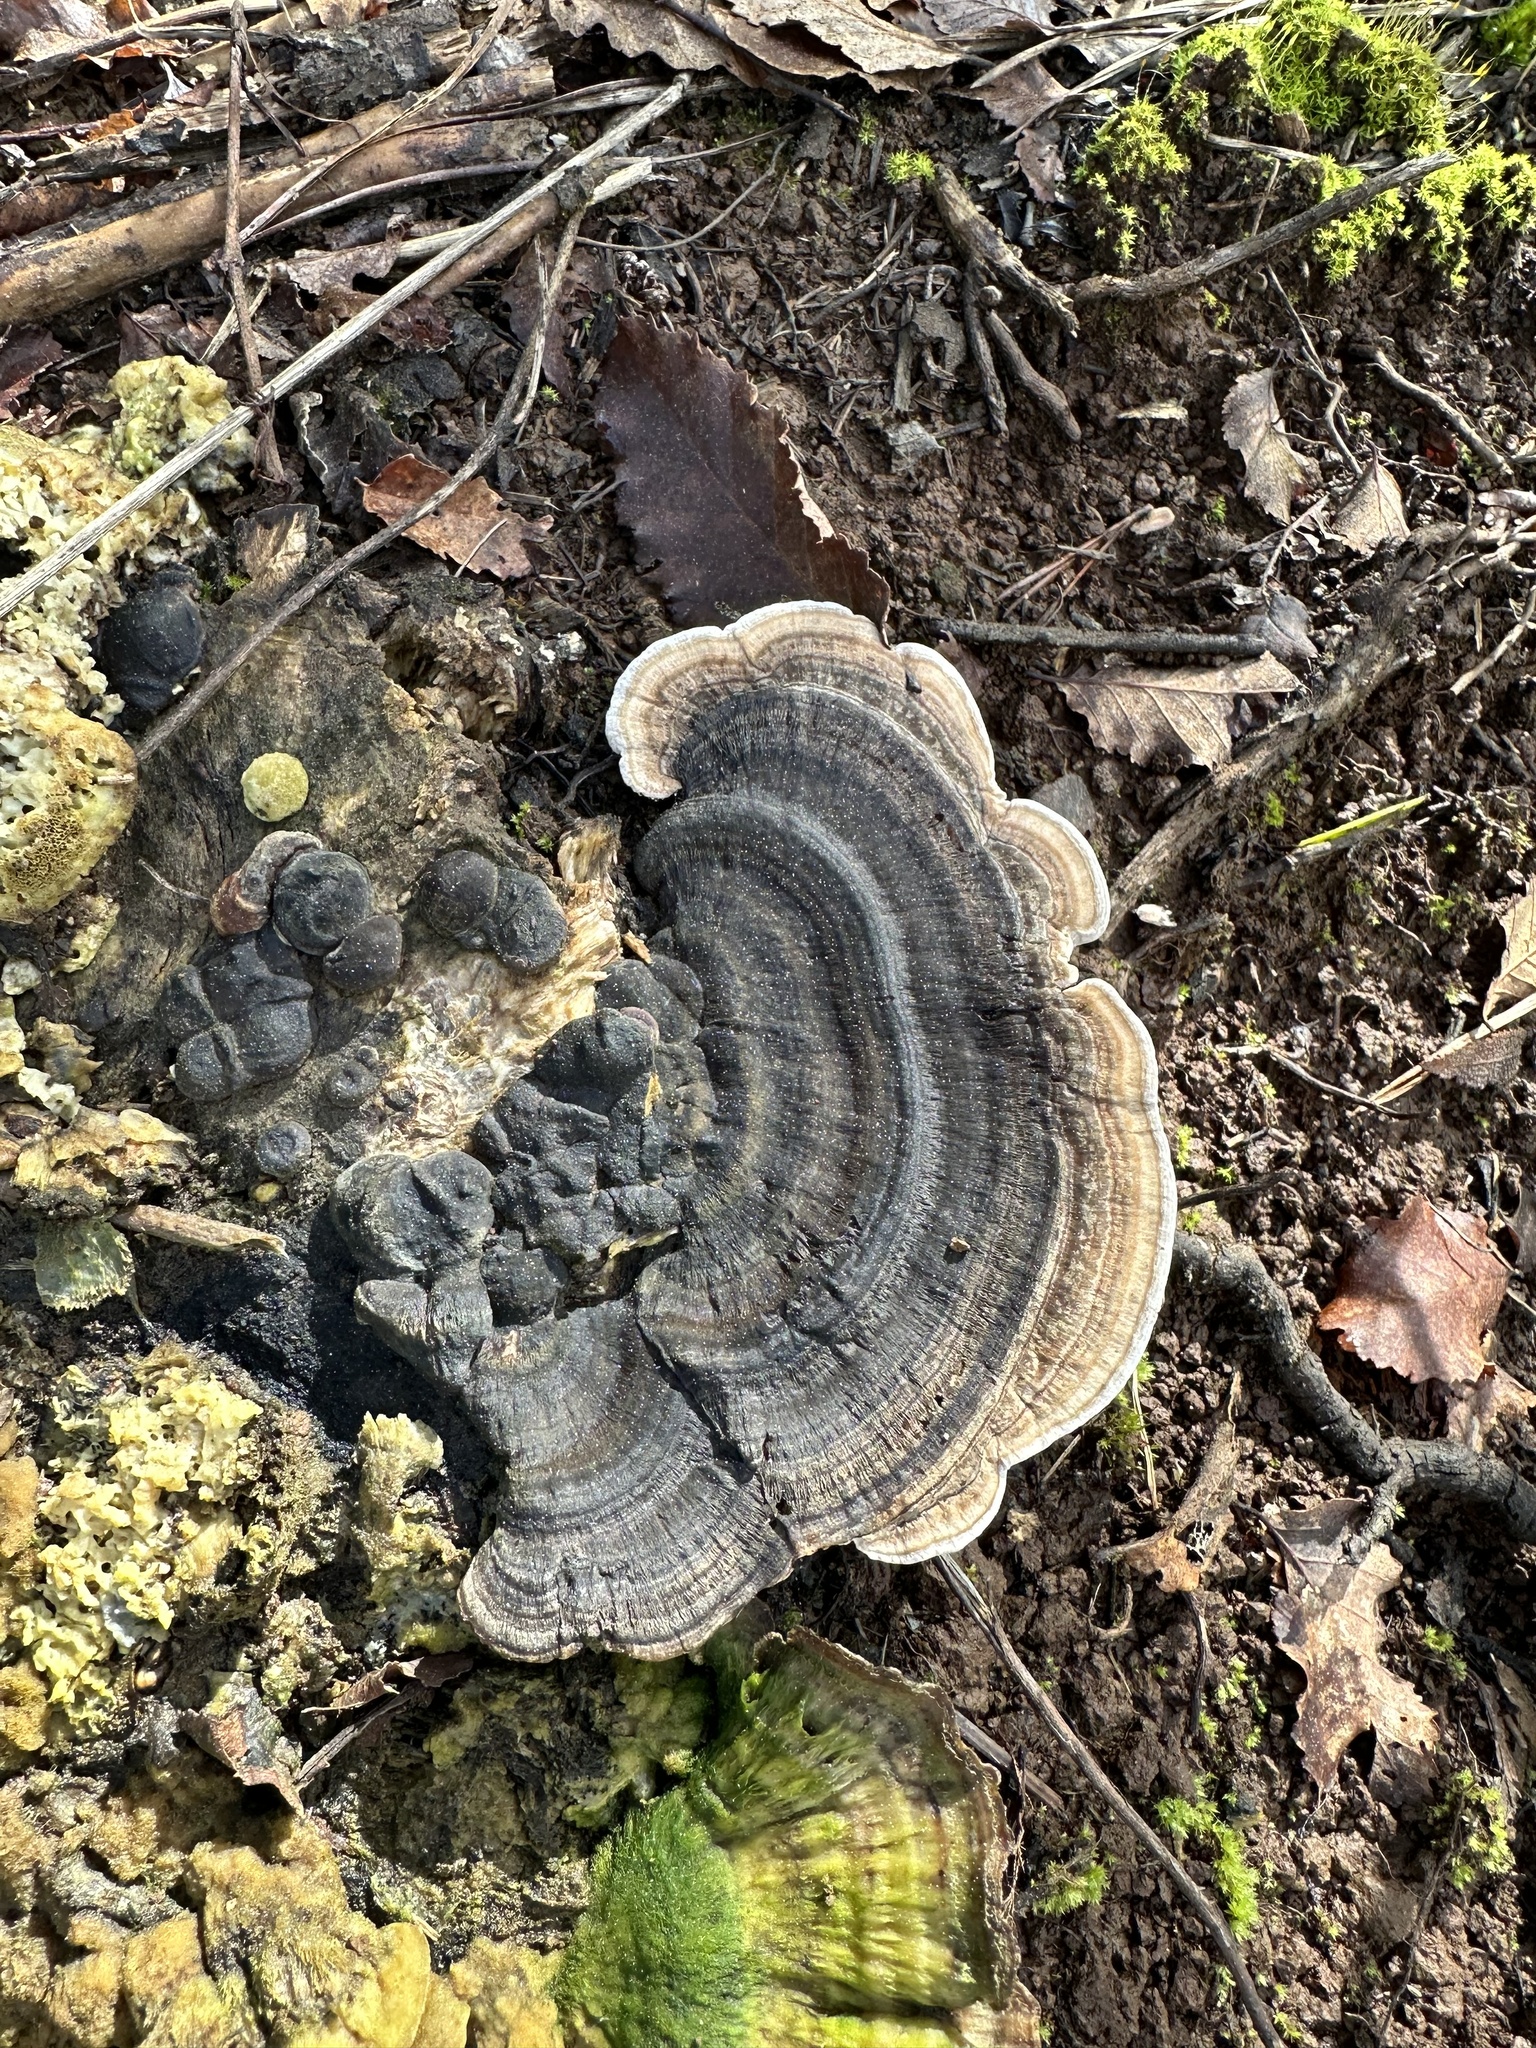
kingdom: Fungi
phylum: Basidiomycota
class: Agaricomycetes
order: Polyporales
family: Polyporaceae
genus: Trametes
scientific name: Trametes versicolor
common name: Turkeytail
